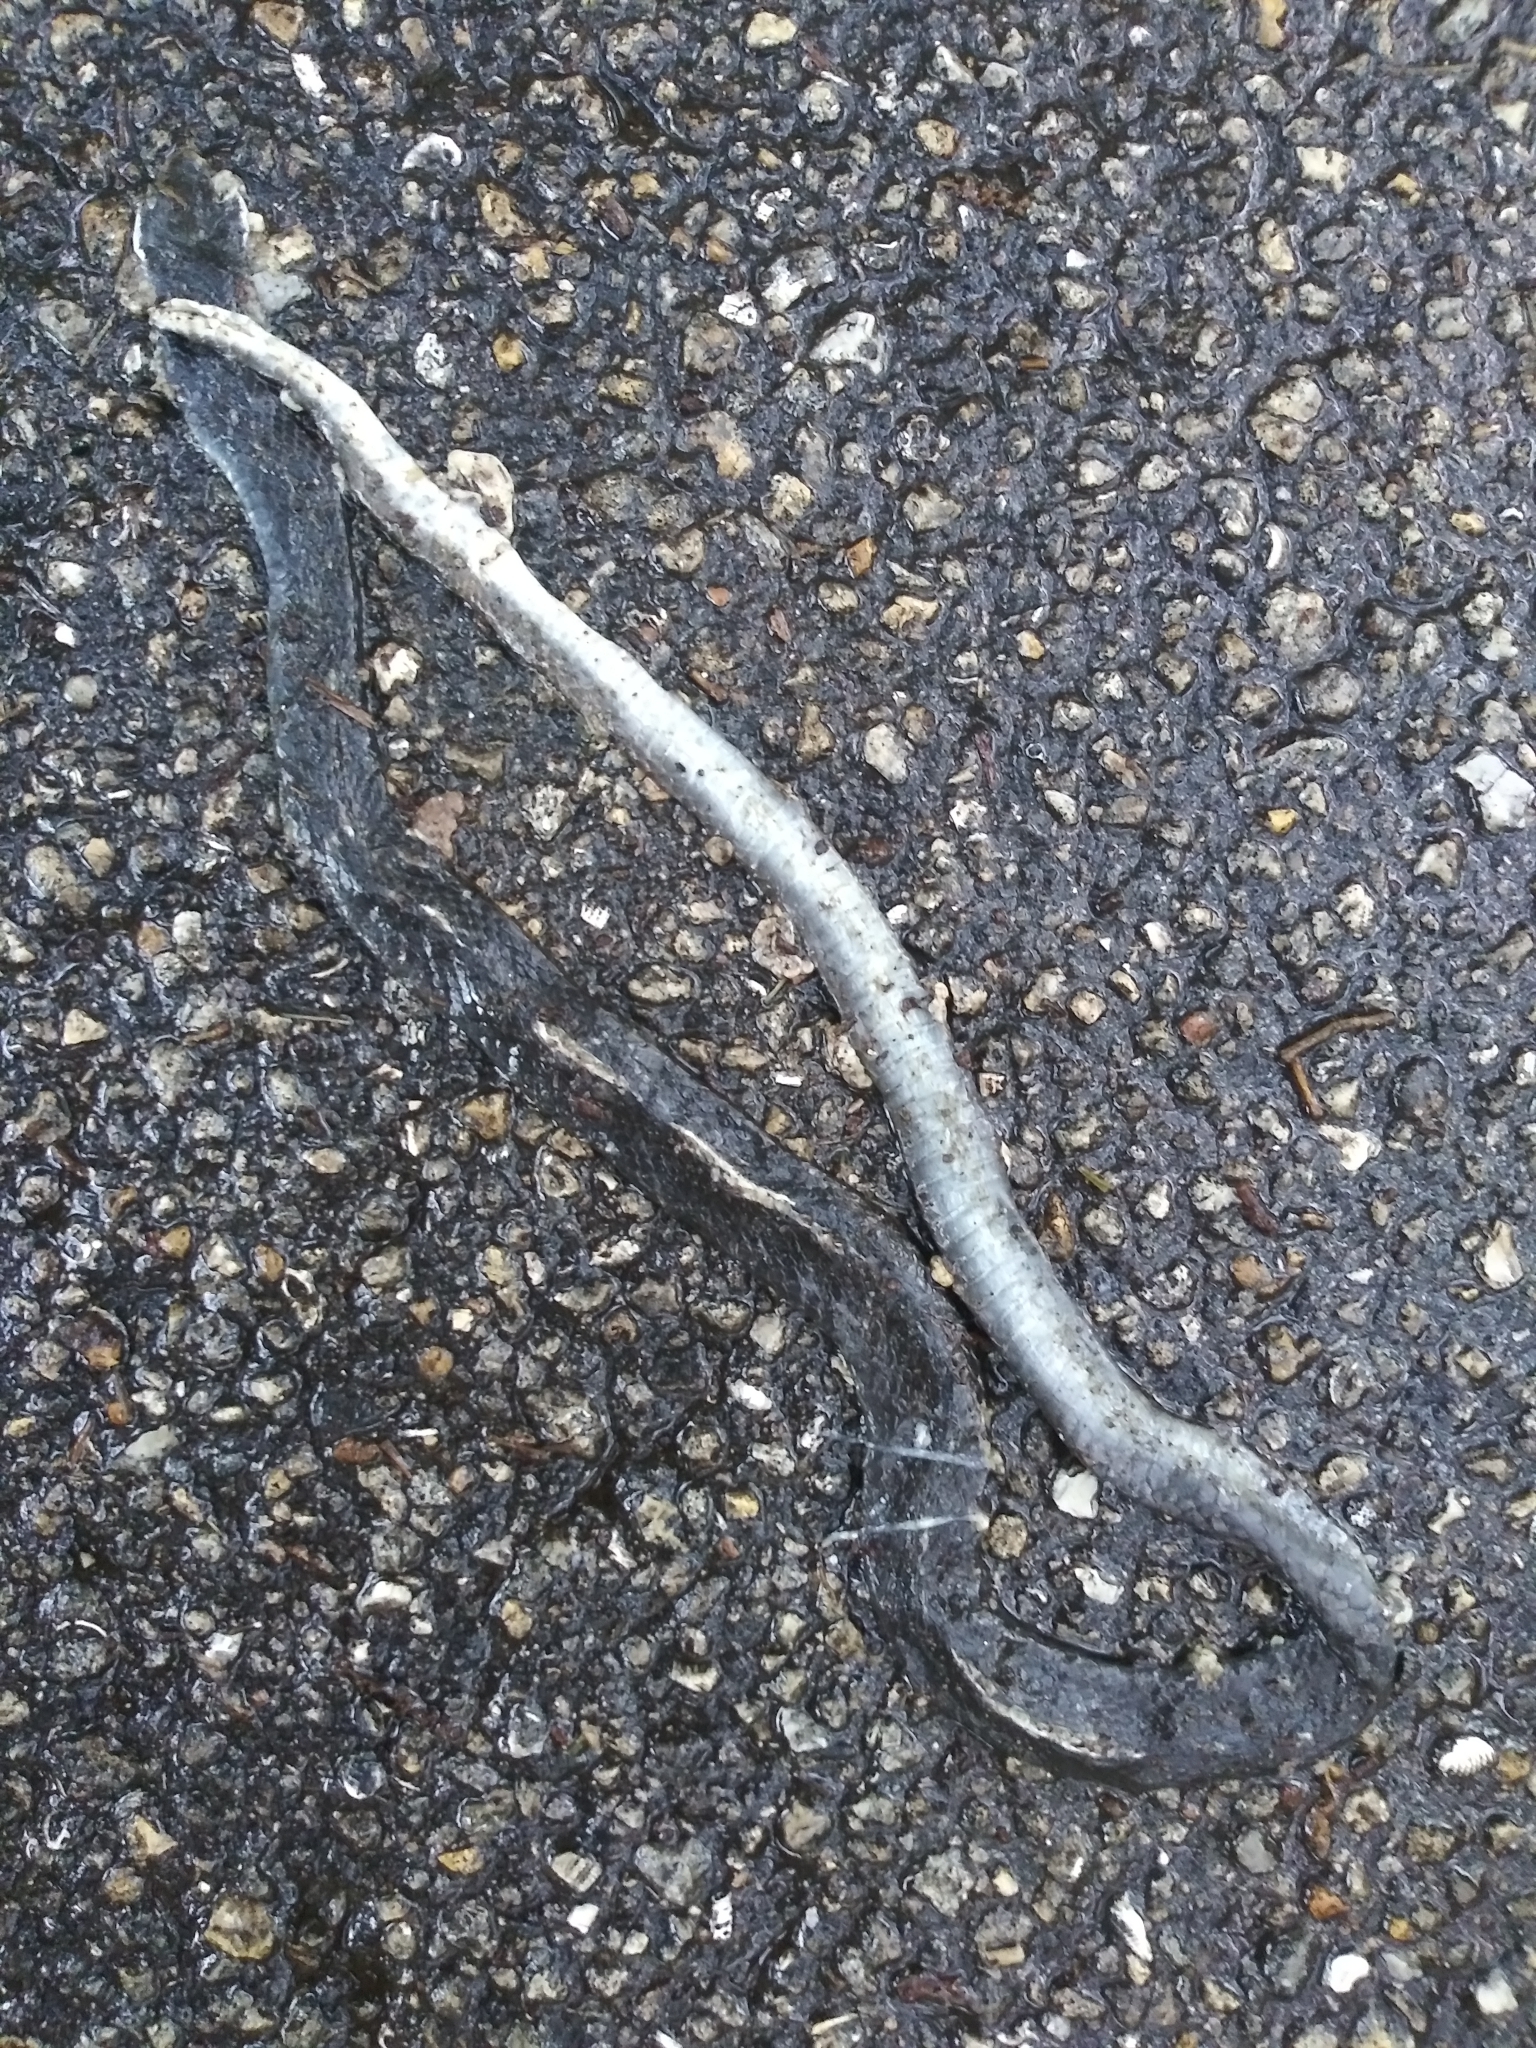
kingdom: Animalia
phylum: Chordata
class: Squamata
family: Colubridae
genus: Coluber
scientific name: Coluber constrictor
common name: Eastern racer
